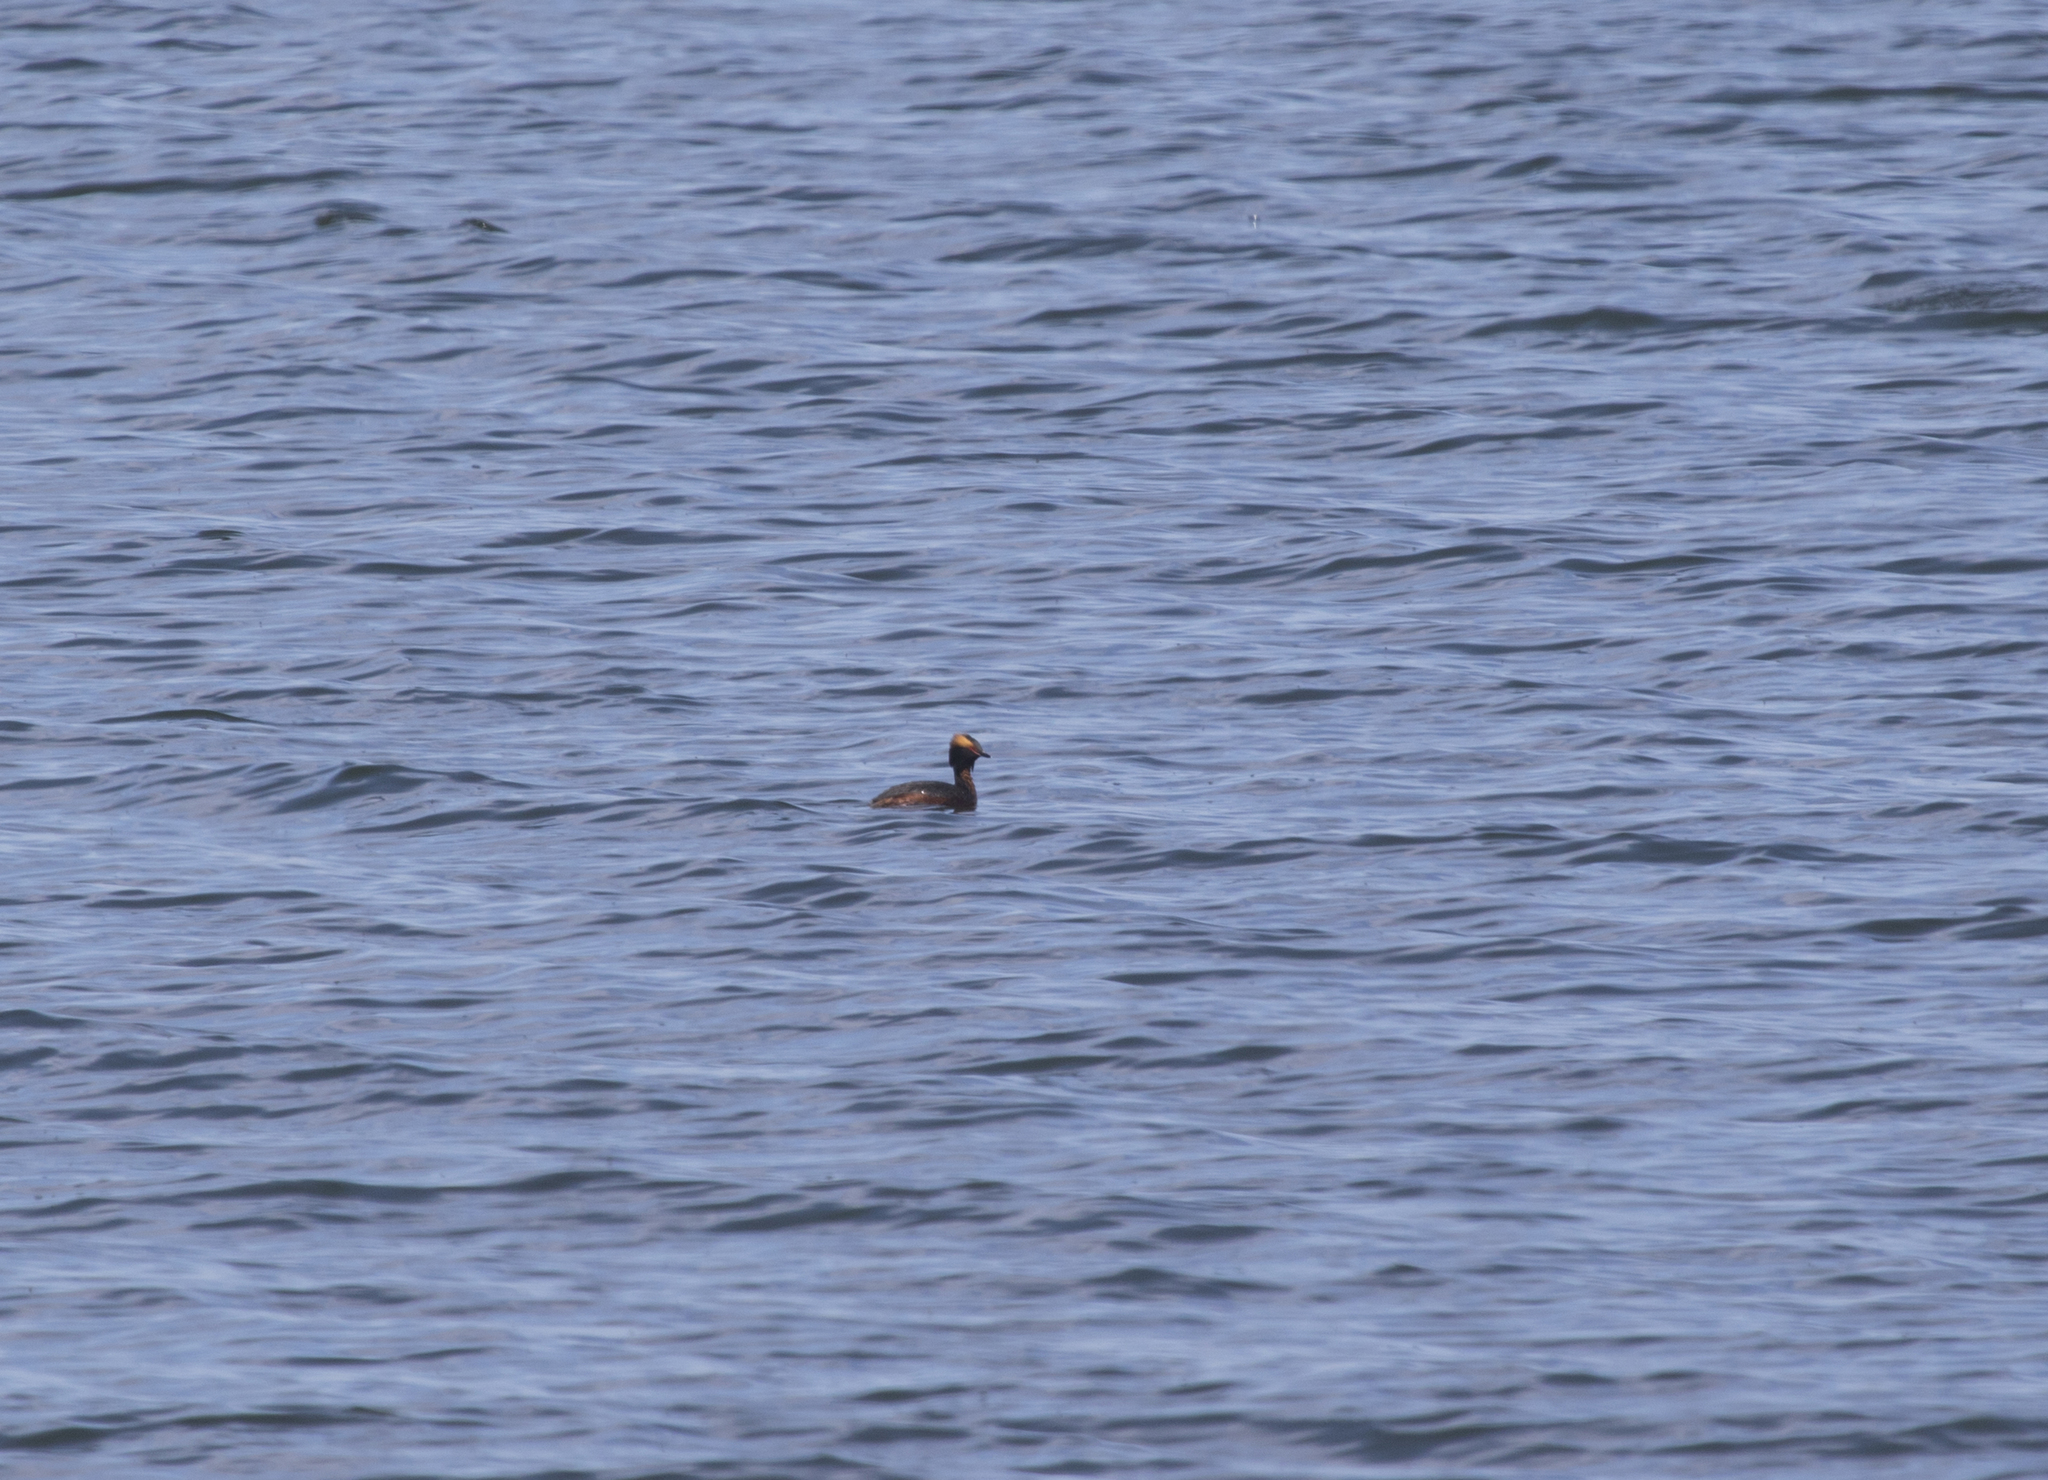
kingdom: Animalia
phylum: Chordata
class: Aves
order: Podicipediformes
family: Podicipedidae
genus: Podiceps
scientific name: Podiceps auritus
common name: Horned grebe
